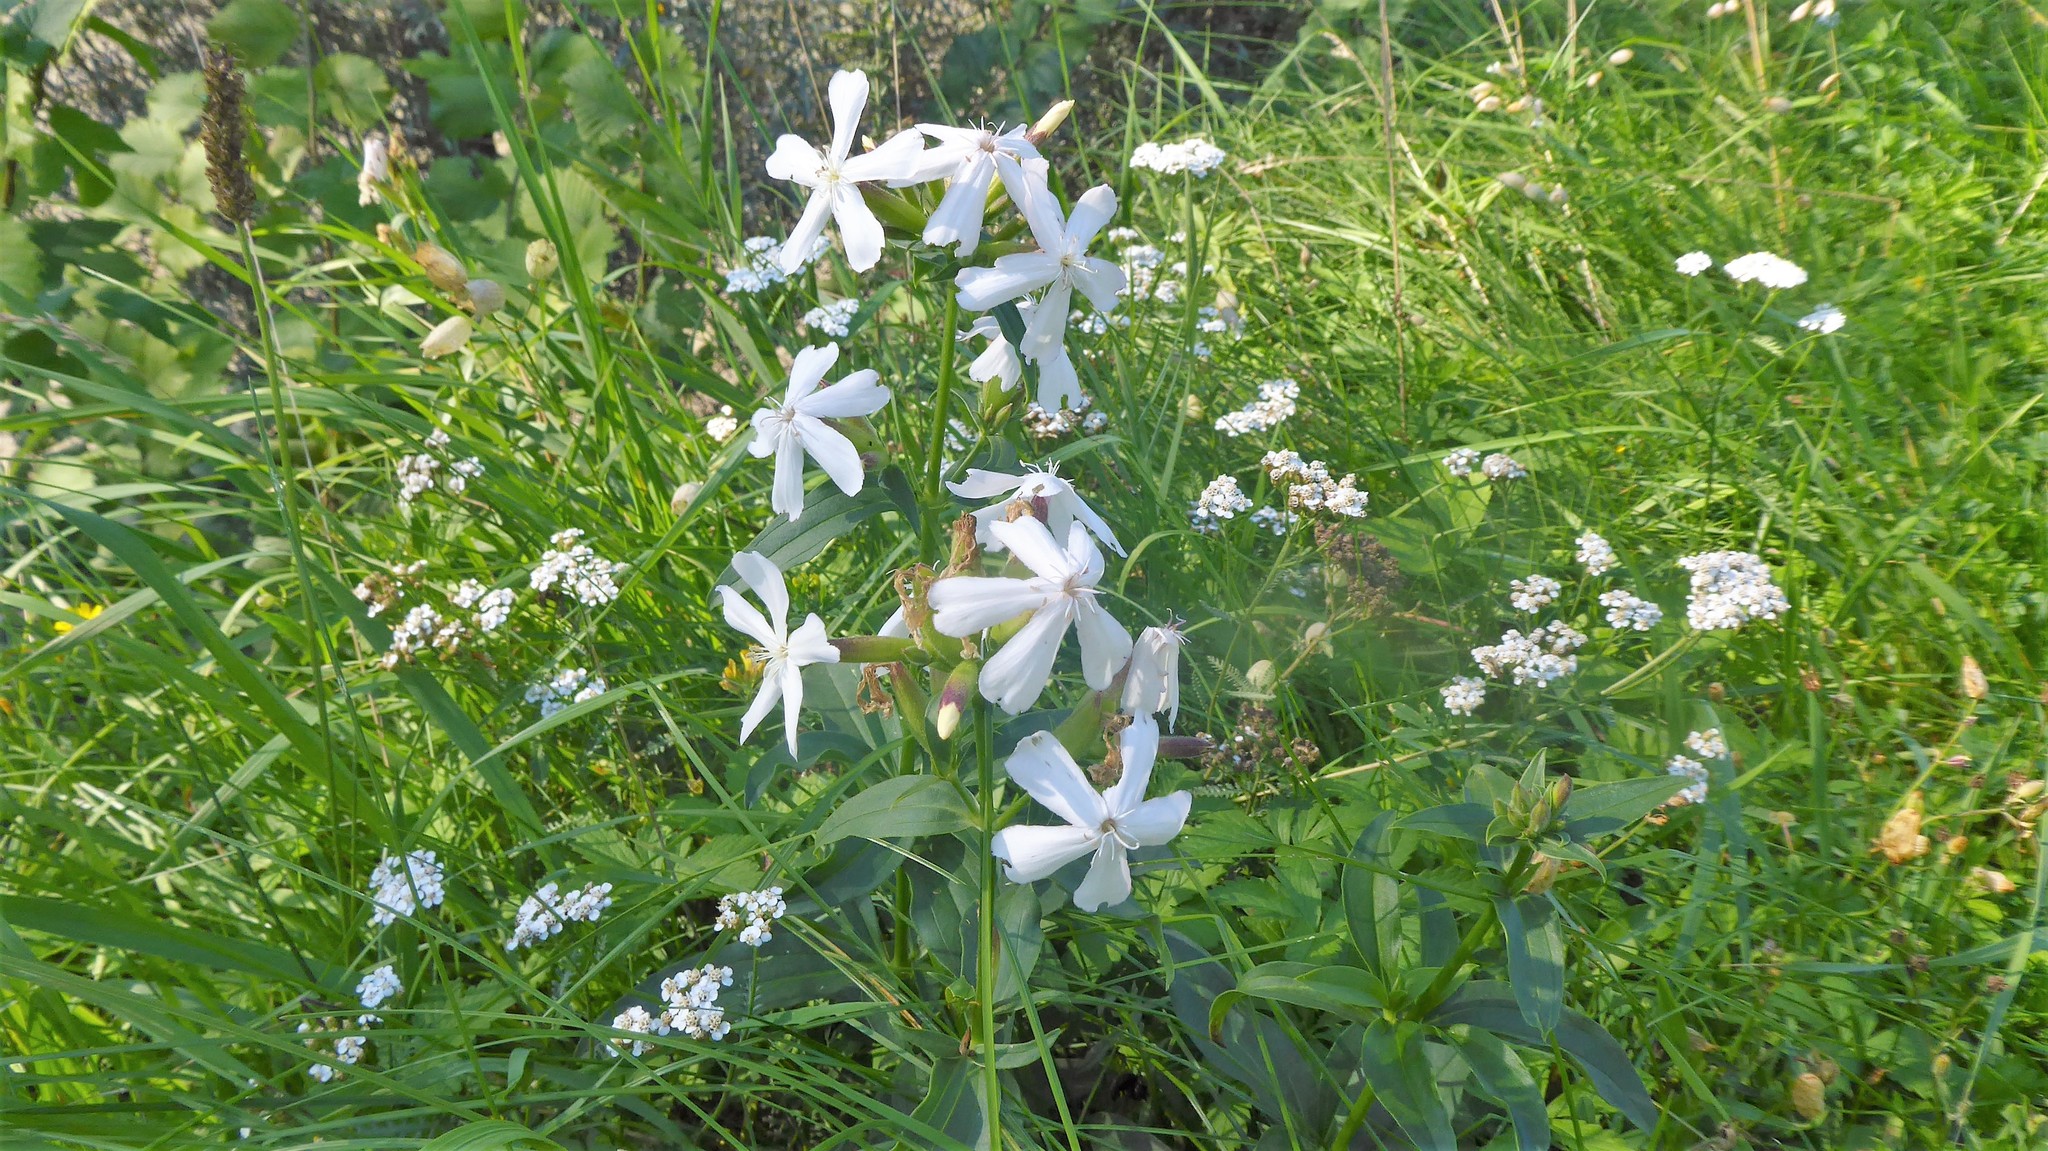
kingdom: Plantae
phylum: Tracheophyta
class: Magnoliopsida
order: Caryophyllales
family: Caryophyllaceae
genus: Saponaria
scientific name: Saponaria officinalis
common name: Soapwort
